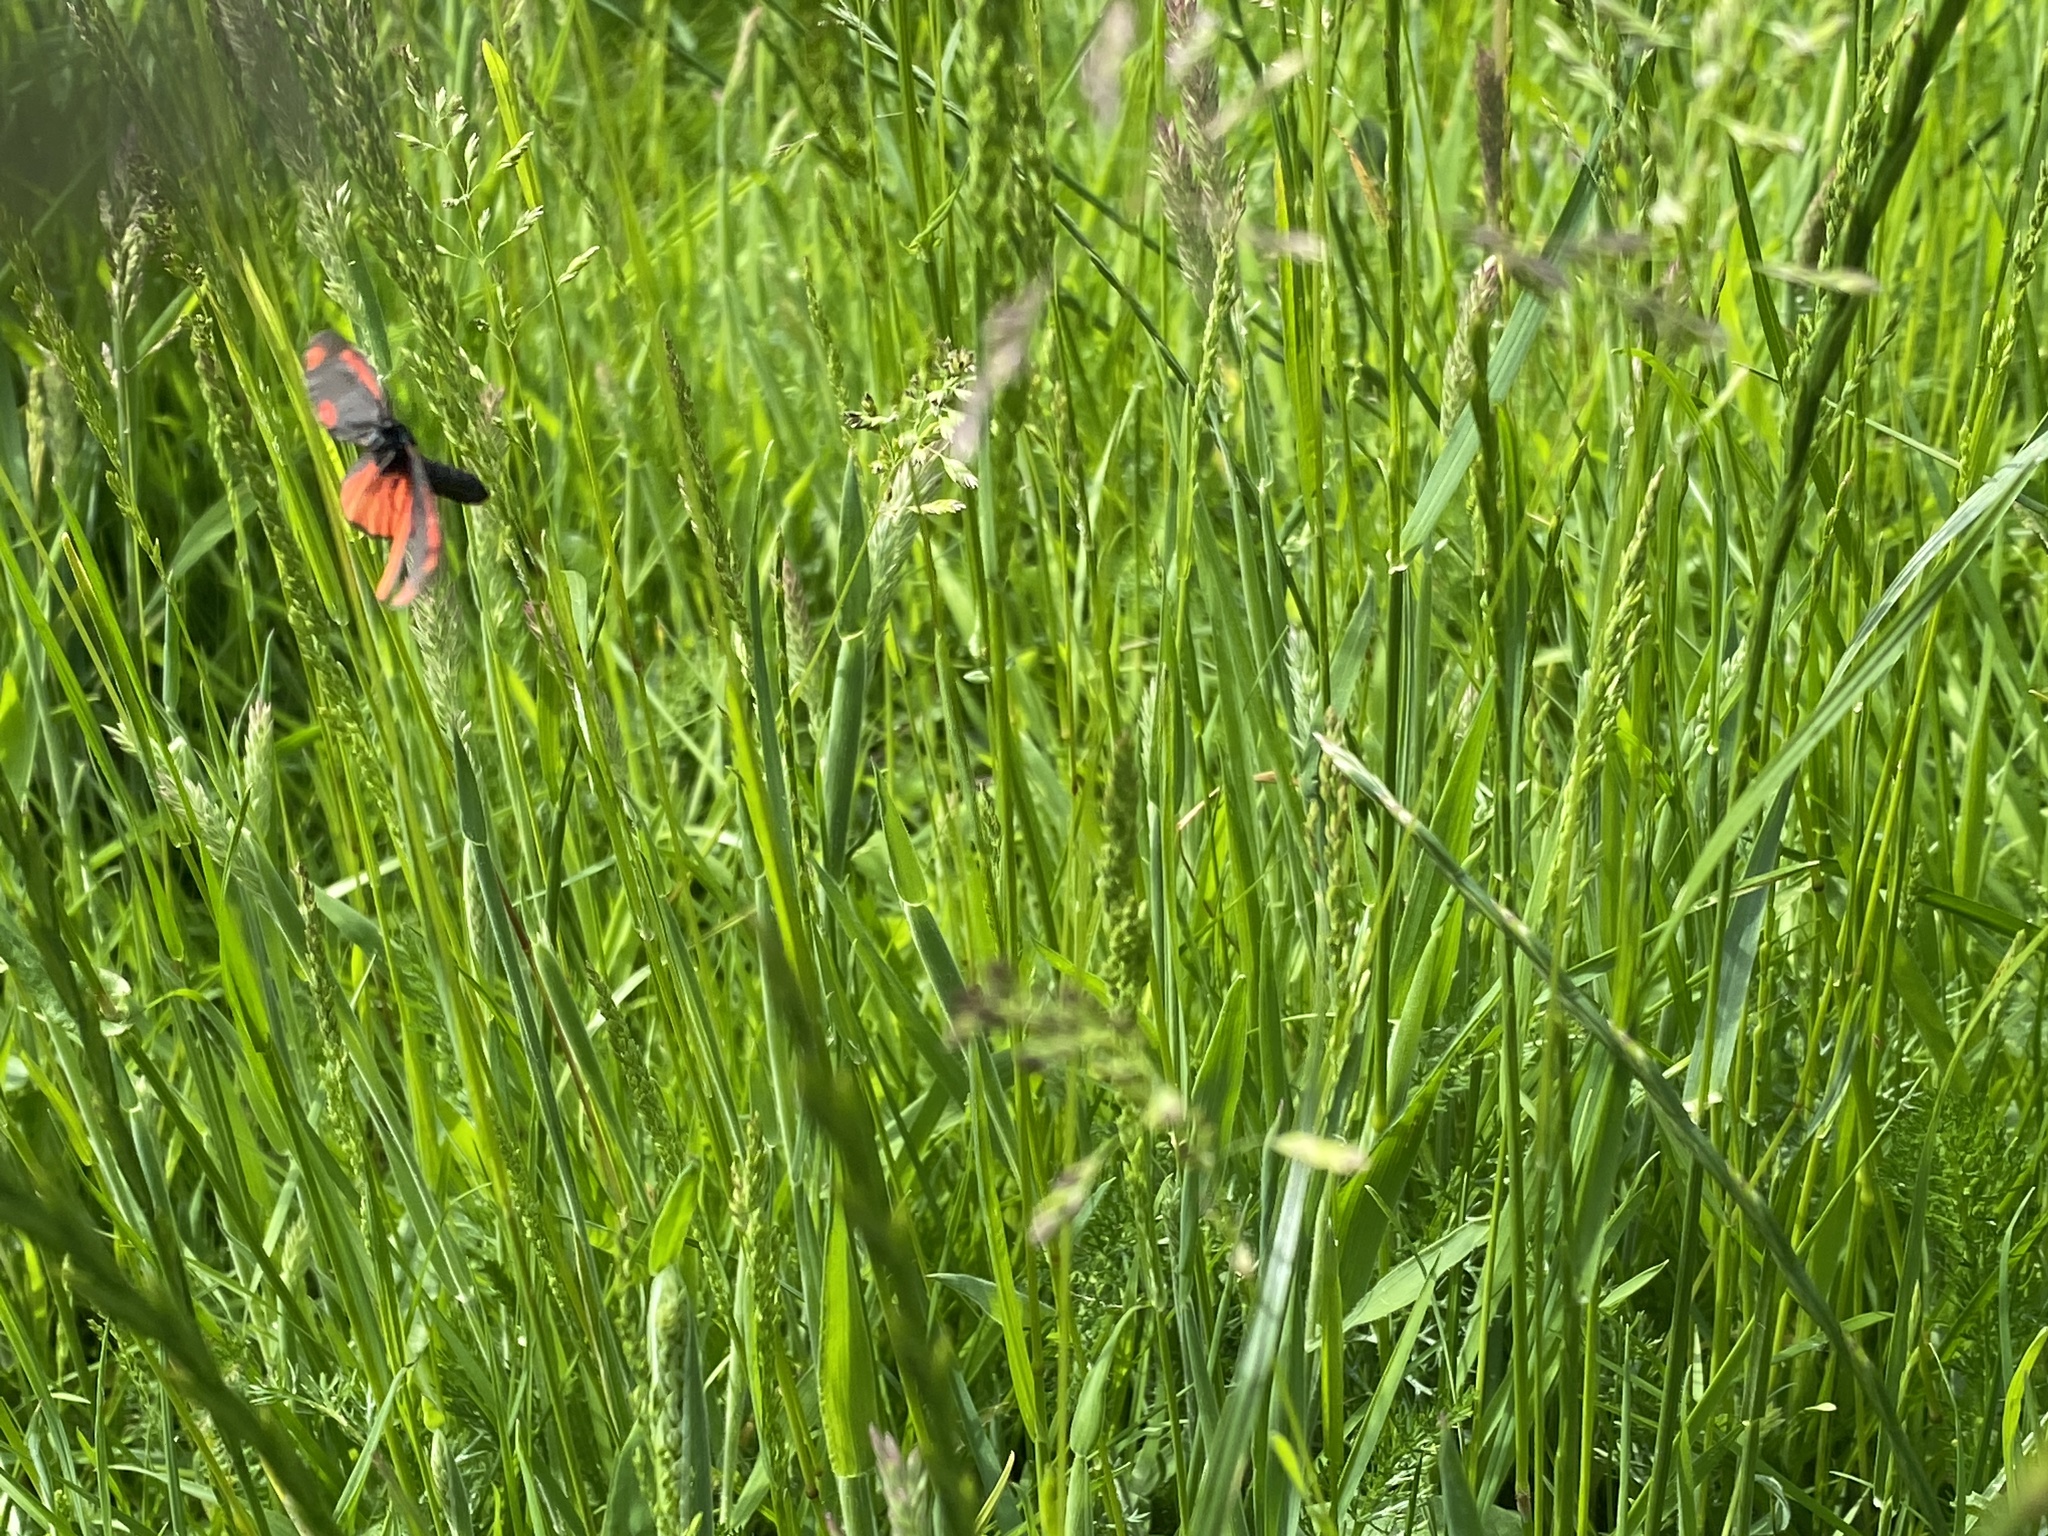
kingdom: Animalia
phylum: Arthropoda
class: Insecta
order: Lepidoptera
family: Erebidae
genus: Tyria
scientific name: Tyria jacobaeae
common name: Cinnabar
